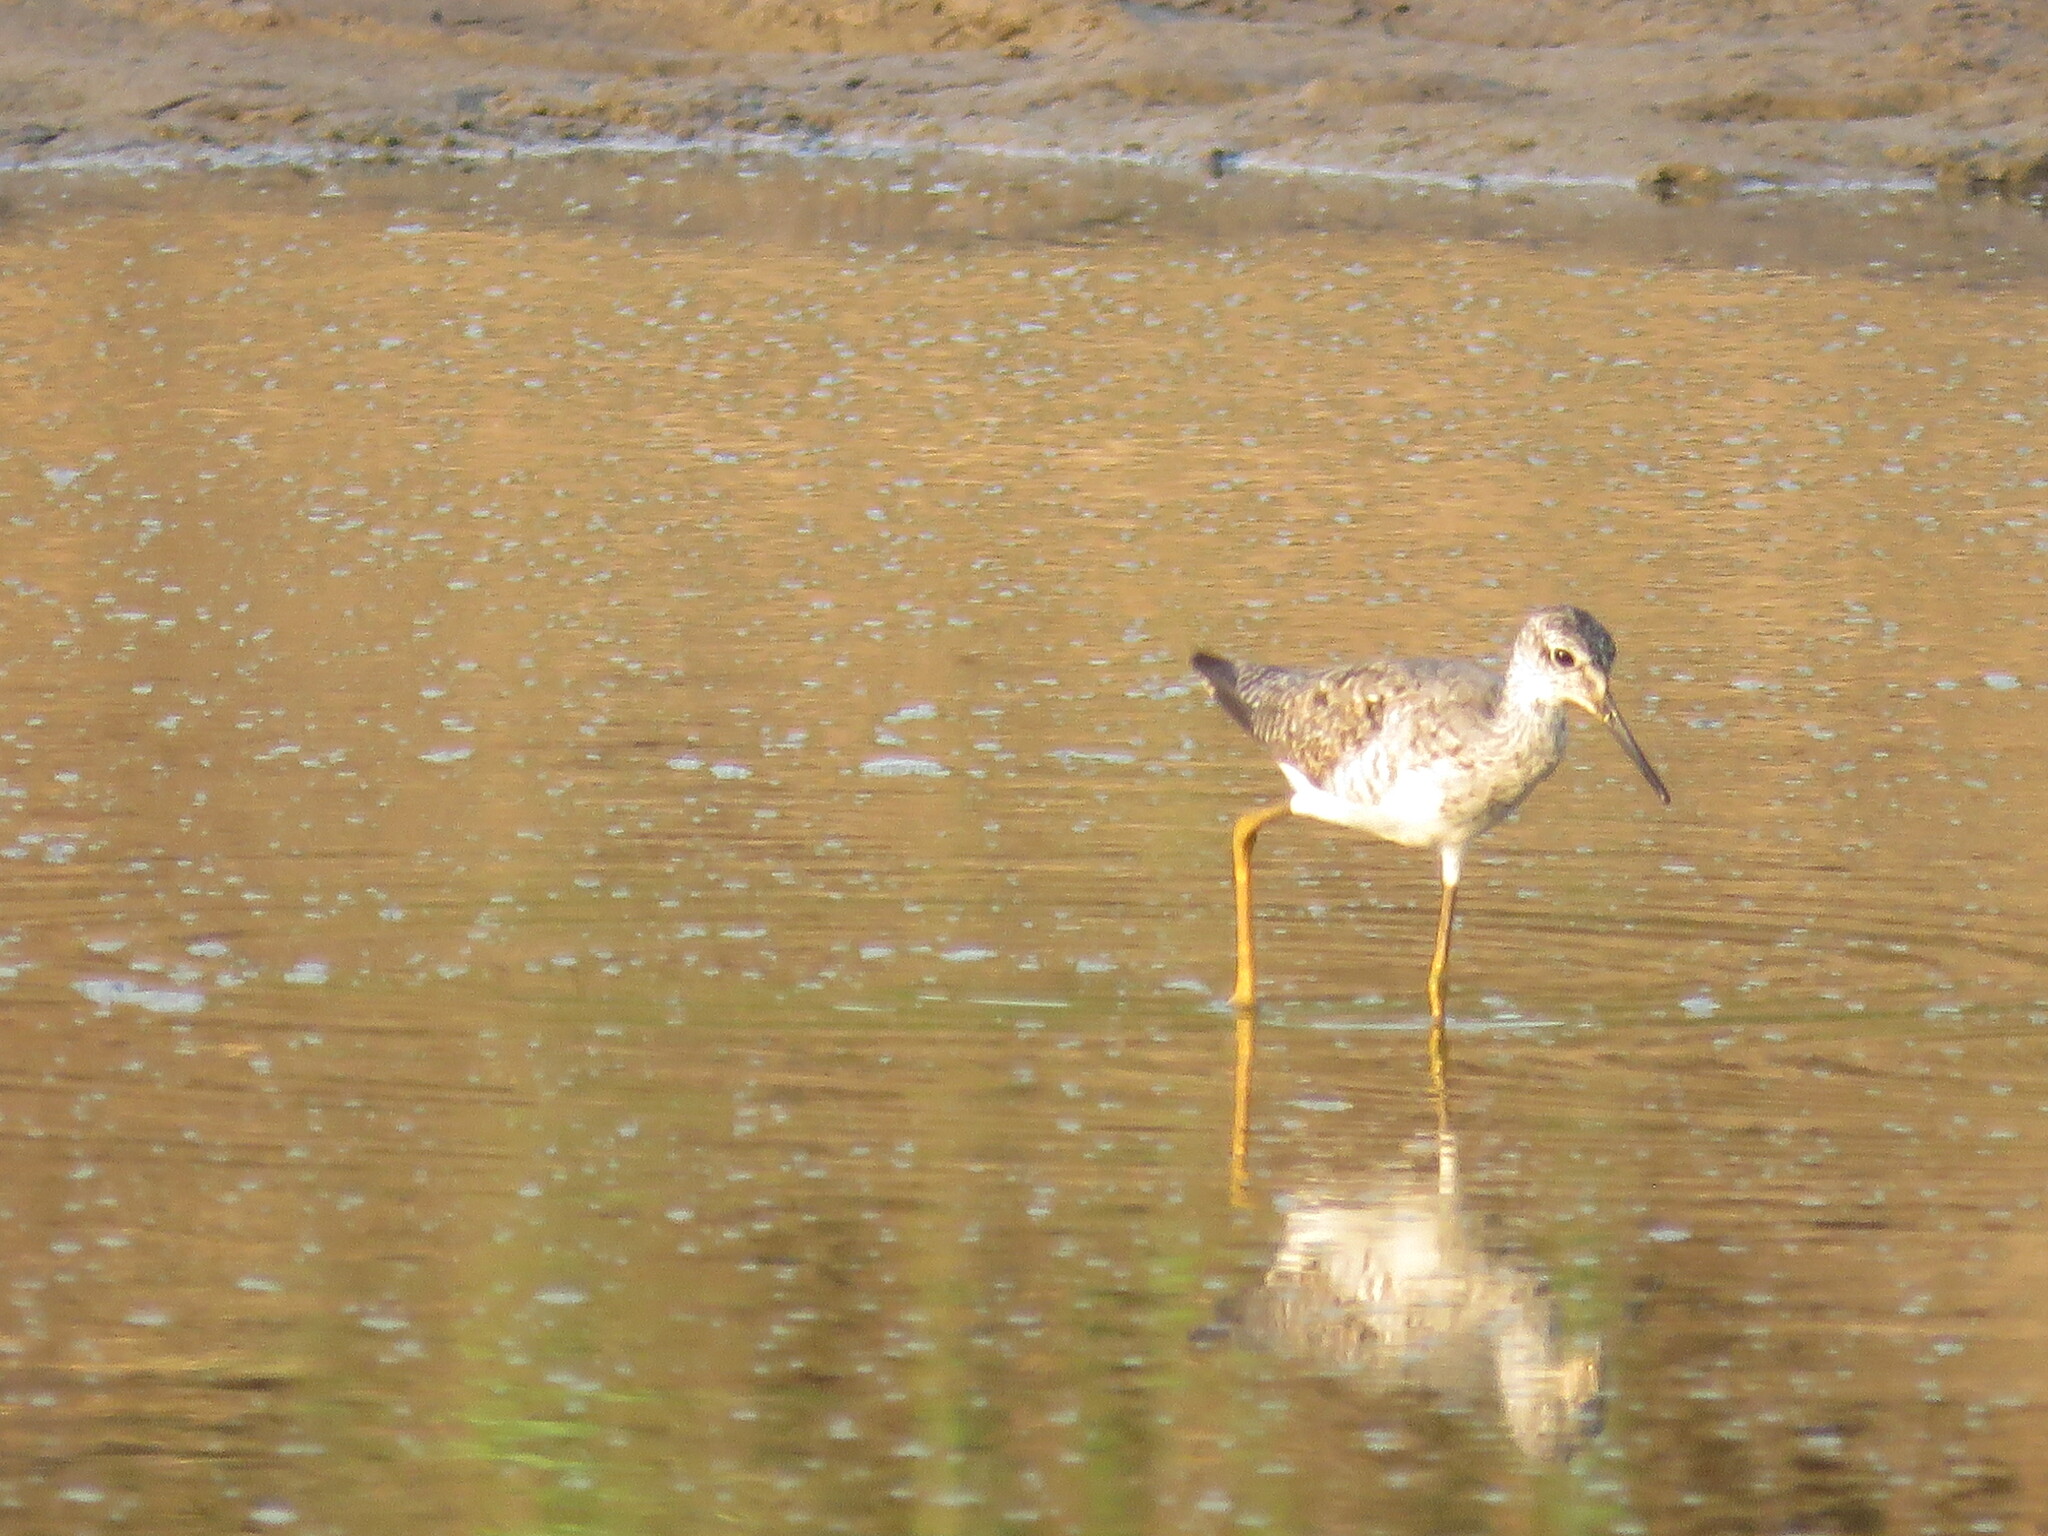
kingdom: Animalia
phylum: Chordata
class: Aves
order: Charadriiformes
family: Scolopacidae
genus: Tringa
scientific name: Tringa flavipes
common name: Lesser yellowlegs
